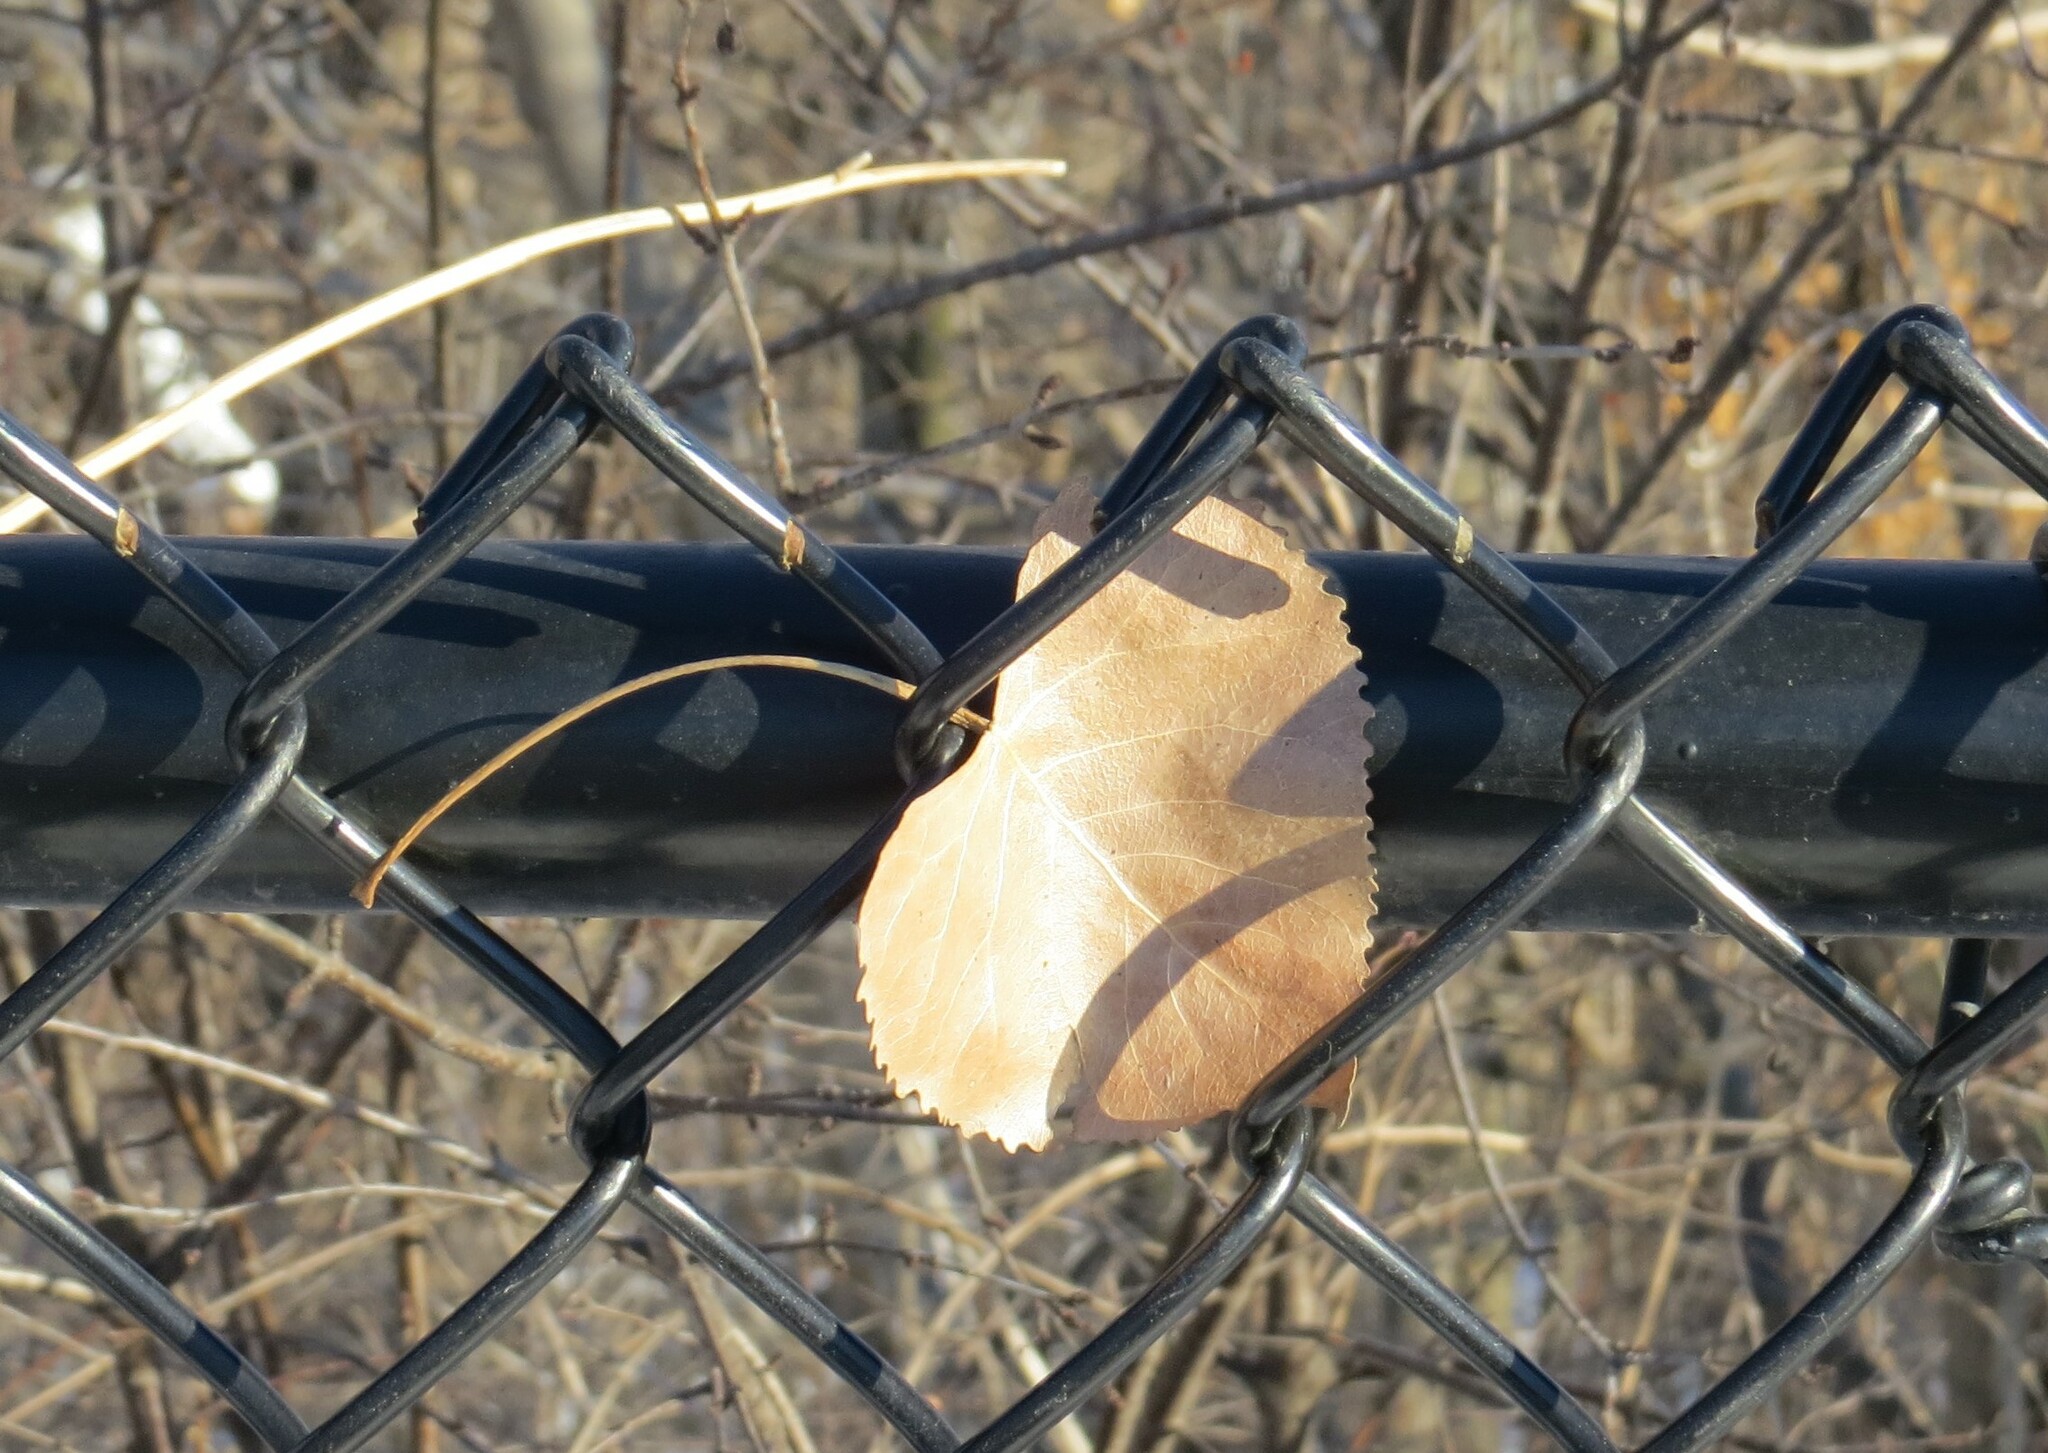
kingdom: Plantae
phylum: Tracheophyta
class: Magnoliopsida
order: Malpighiales
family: Salicaceae
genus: Populus
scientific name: Populus deltoides
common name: Eastern cottonwood
